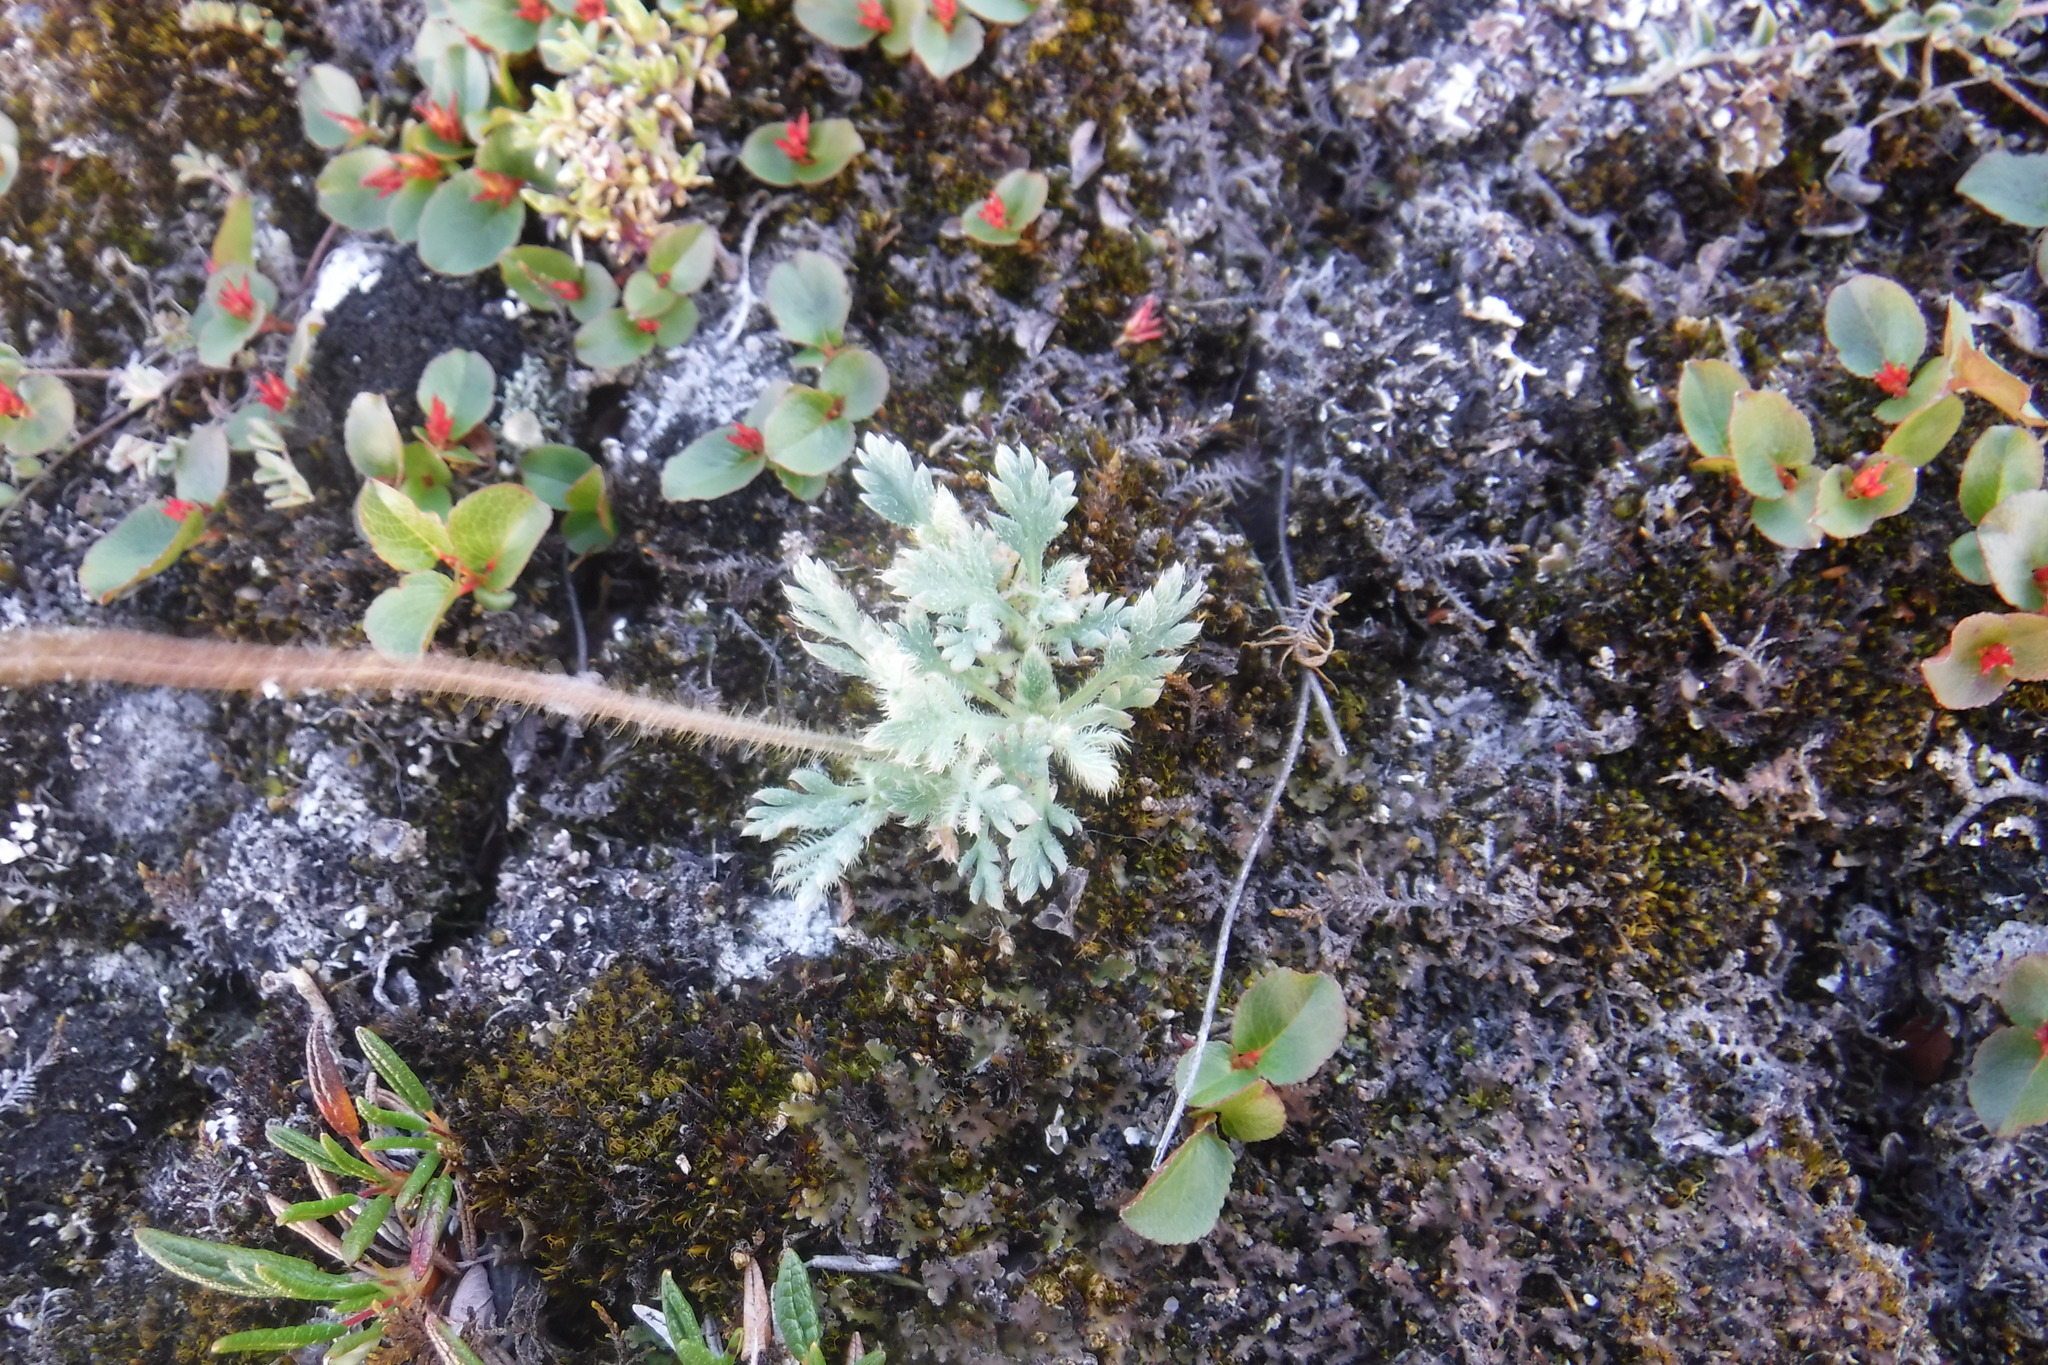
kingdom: Plantae
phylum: Tracheophyta
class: Magnoliopsida
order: Ranunculales
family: Papaveraceae
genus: Papaver
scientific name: Papaver radicatum
